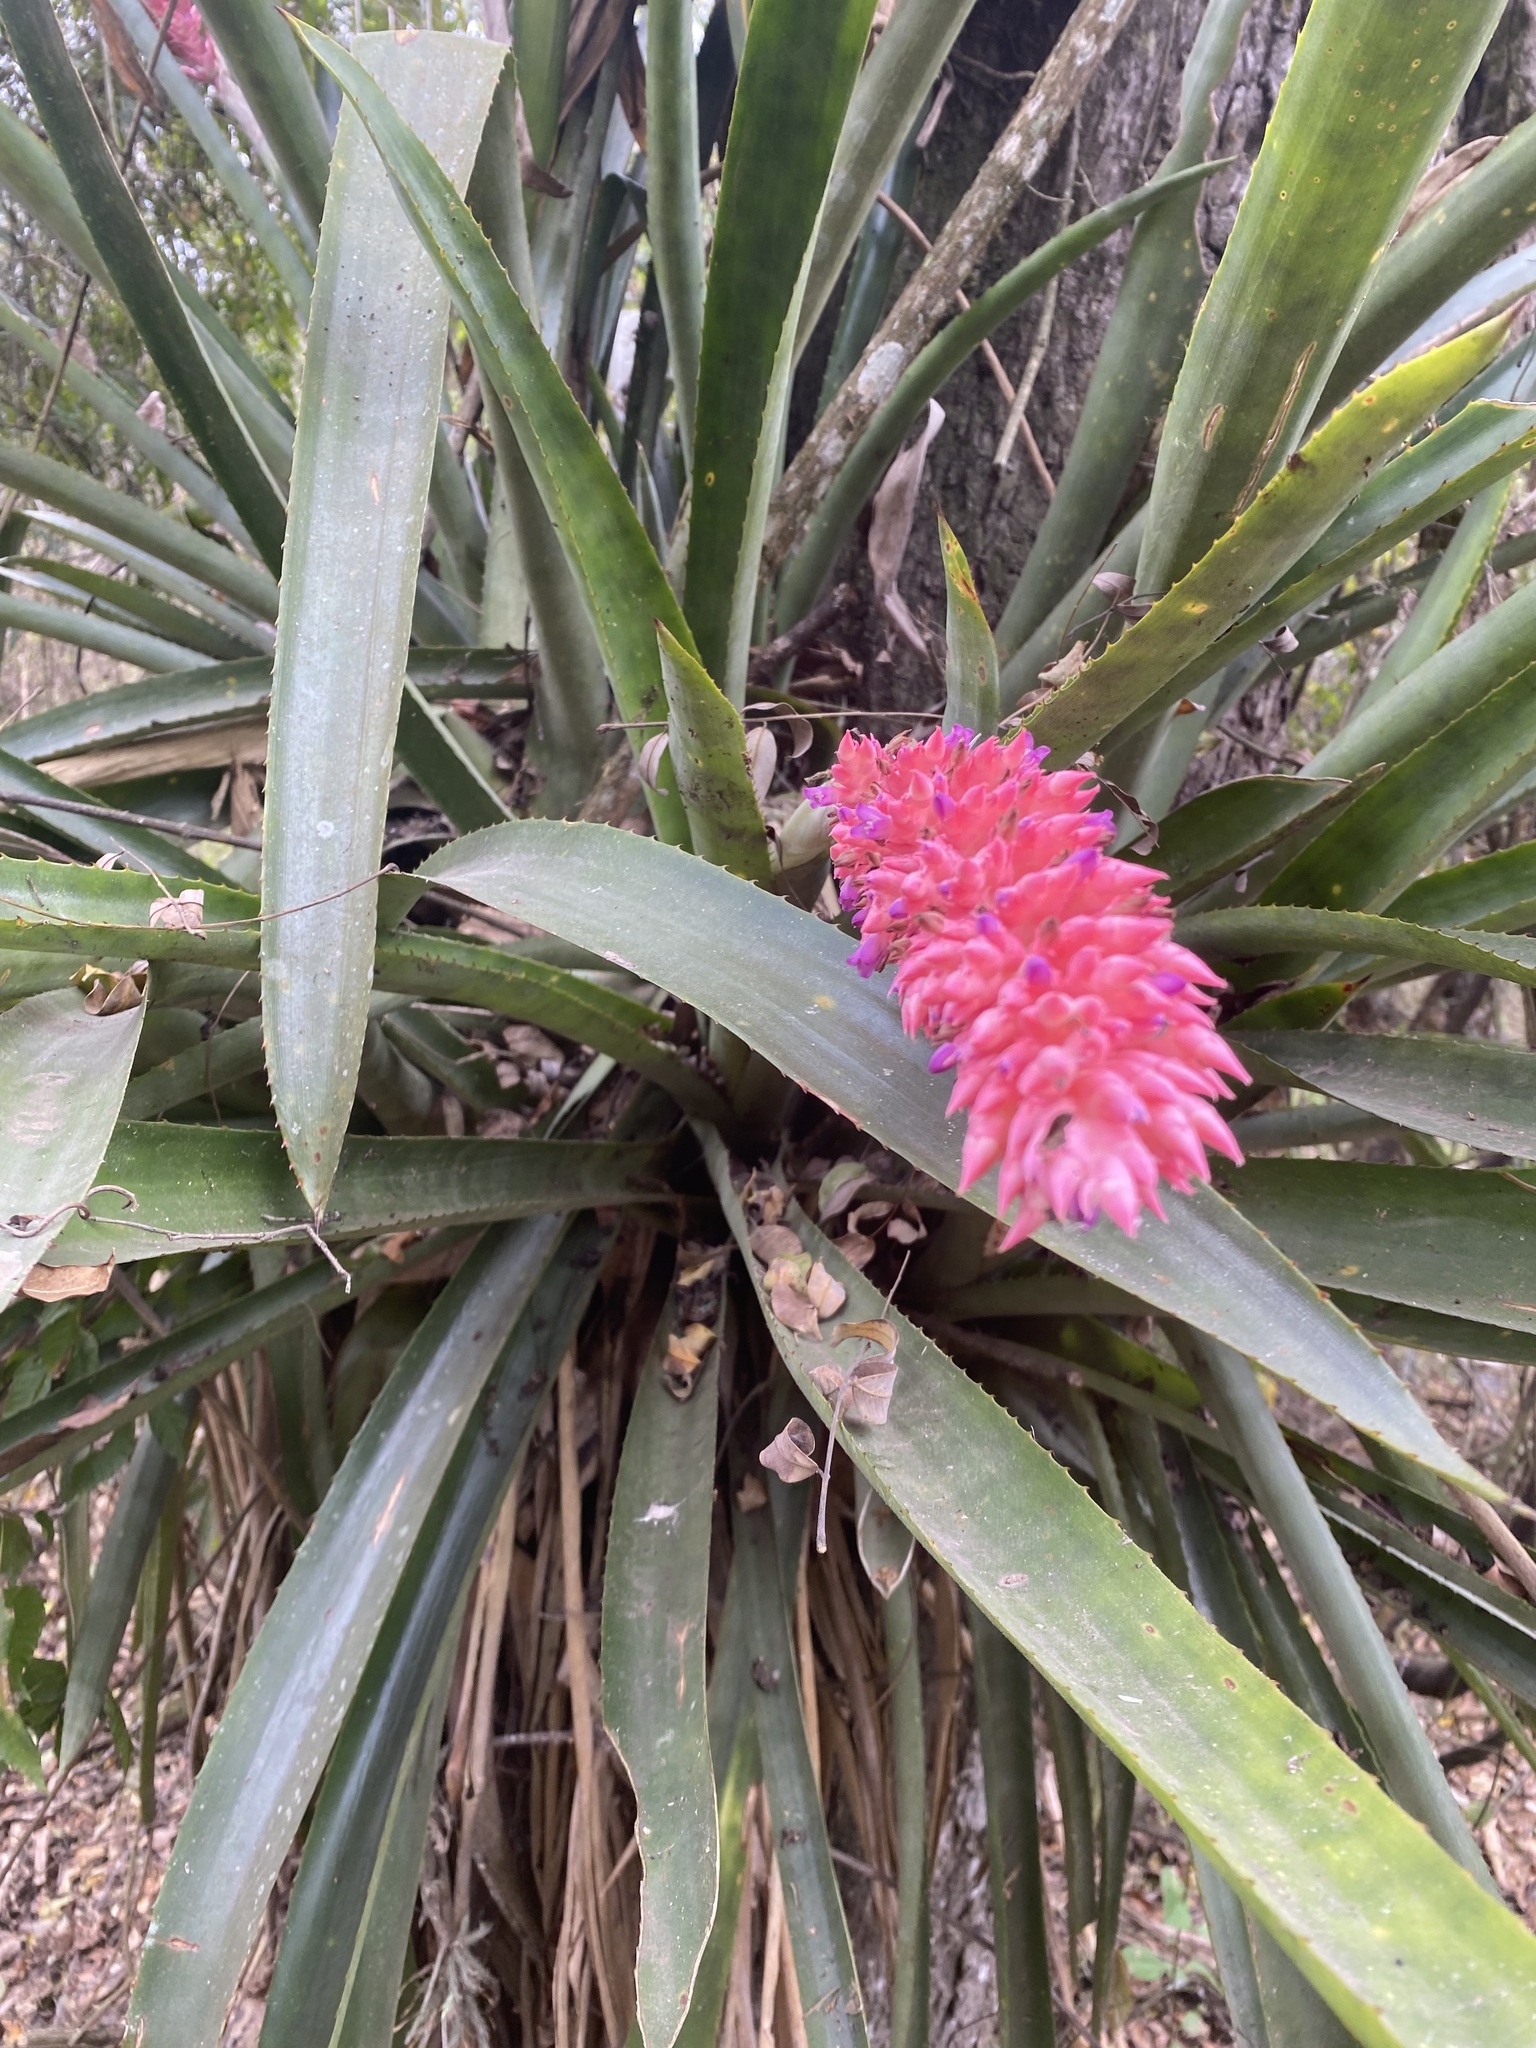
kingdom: Plantae
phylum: Tracheophyta
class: Liliopsida
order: Poales
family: Bromeliaceae
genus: Aechmea
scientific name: Aechmea distichantha
